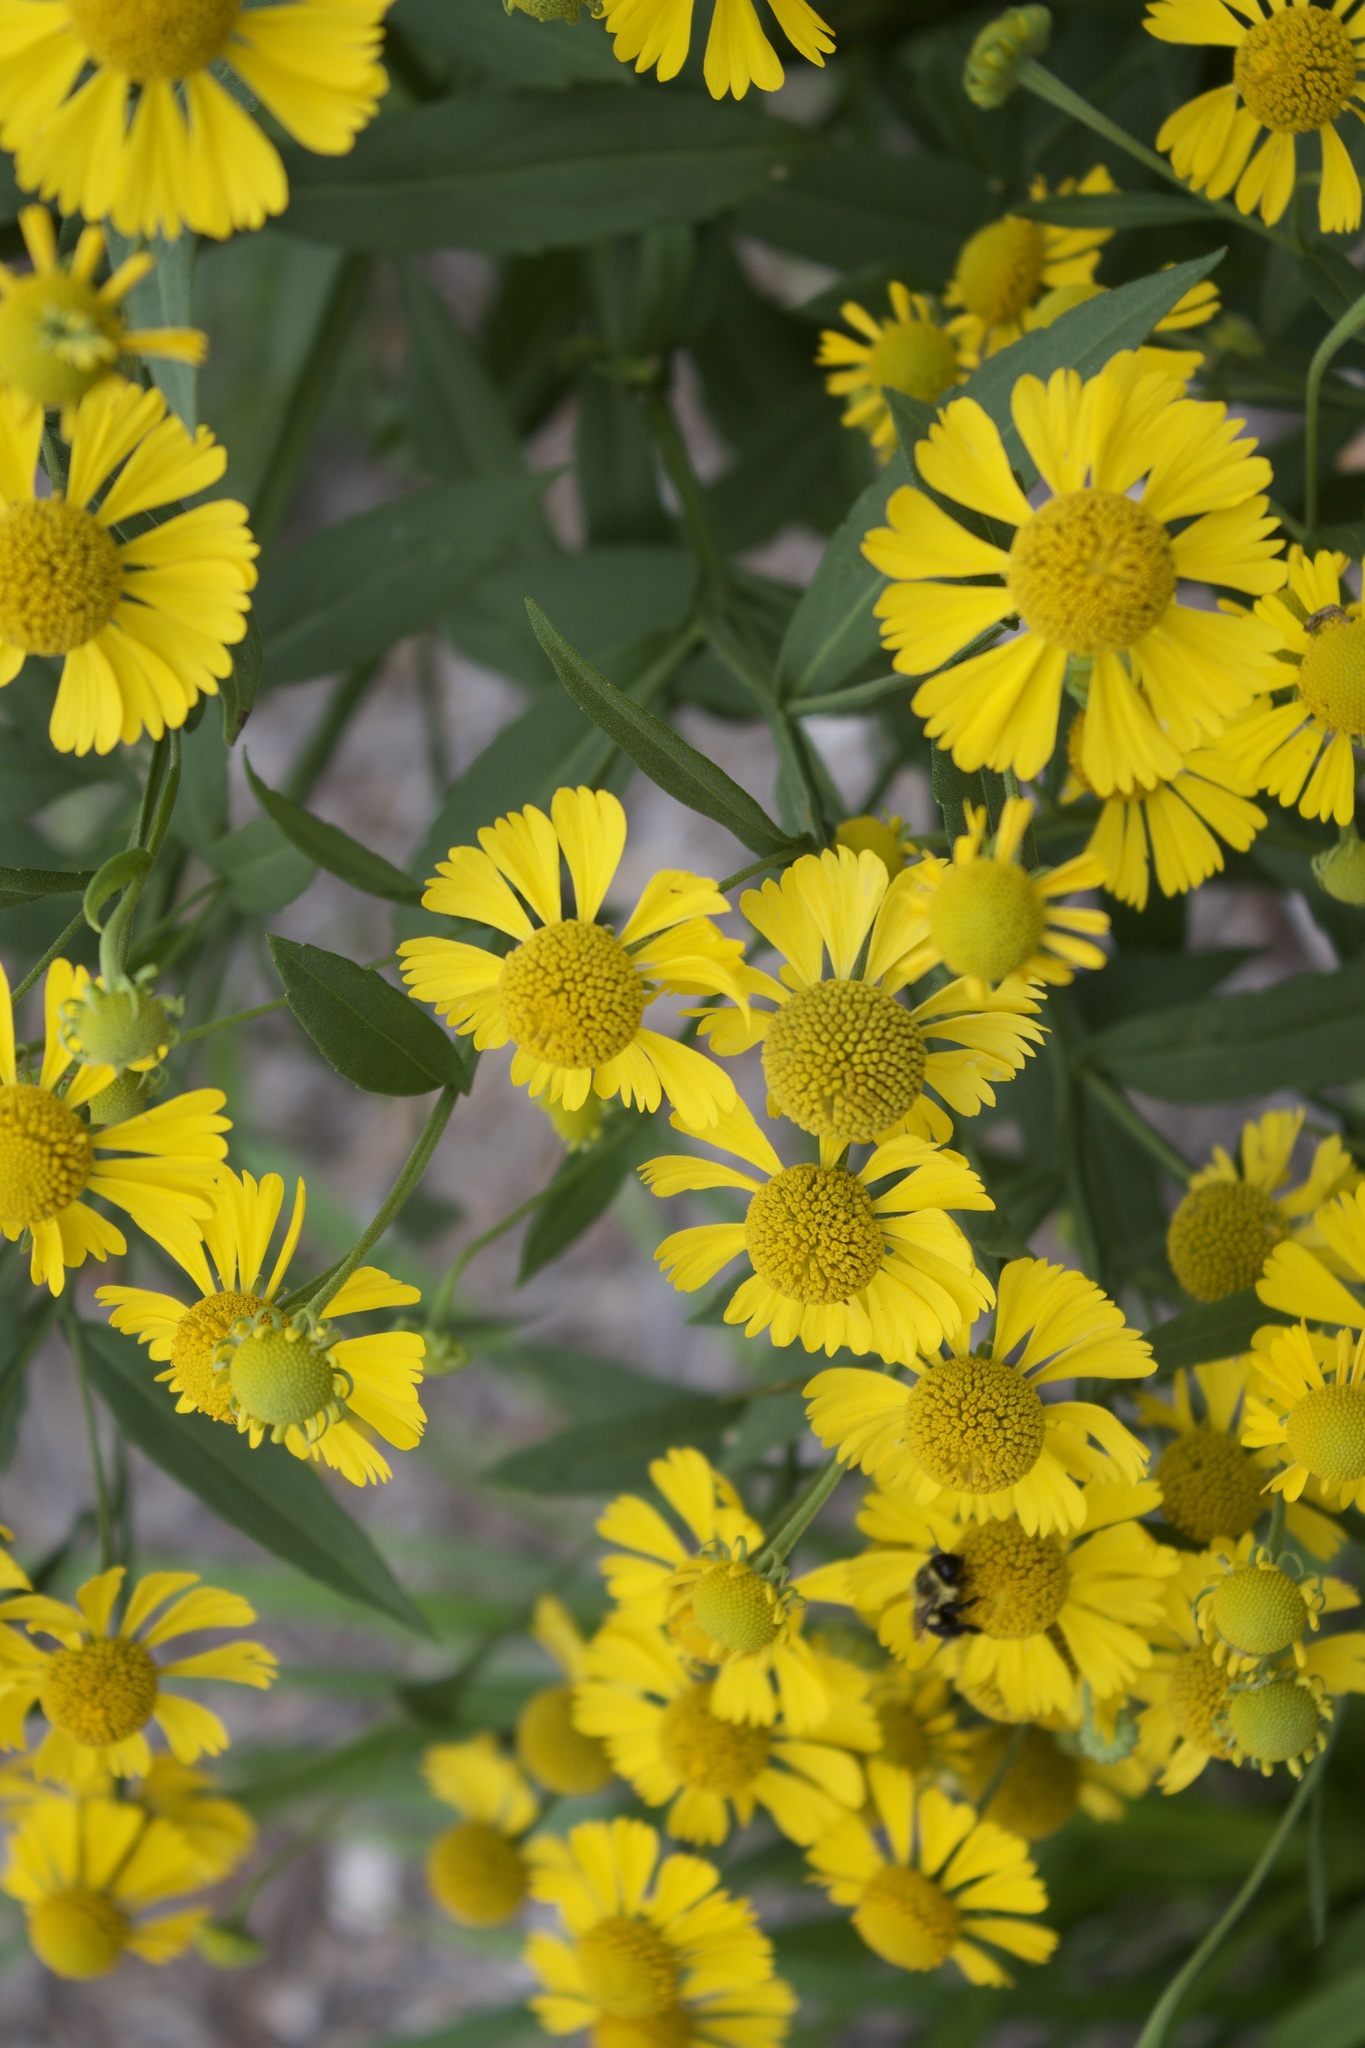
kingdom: Animalia
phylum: Arthropoda
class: Insecta
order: Hymenoptera
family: Apidae
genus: Bombus
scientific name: Bombus impatiens
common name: Common eastern bumble bee
